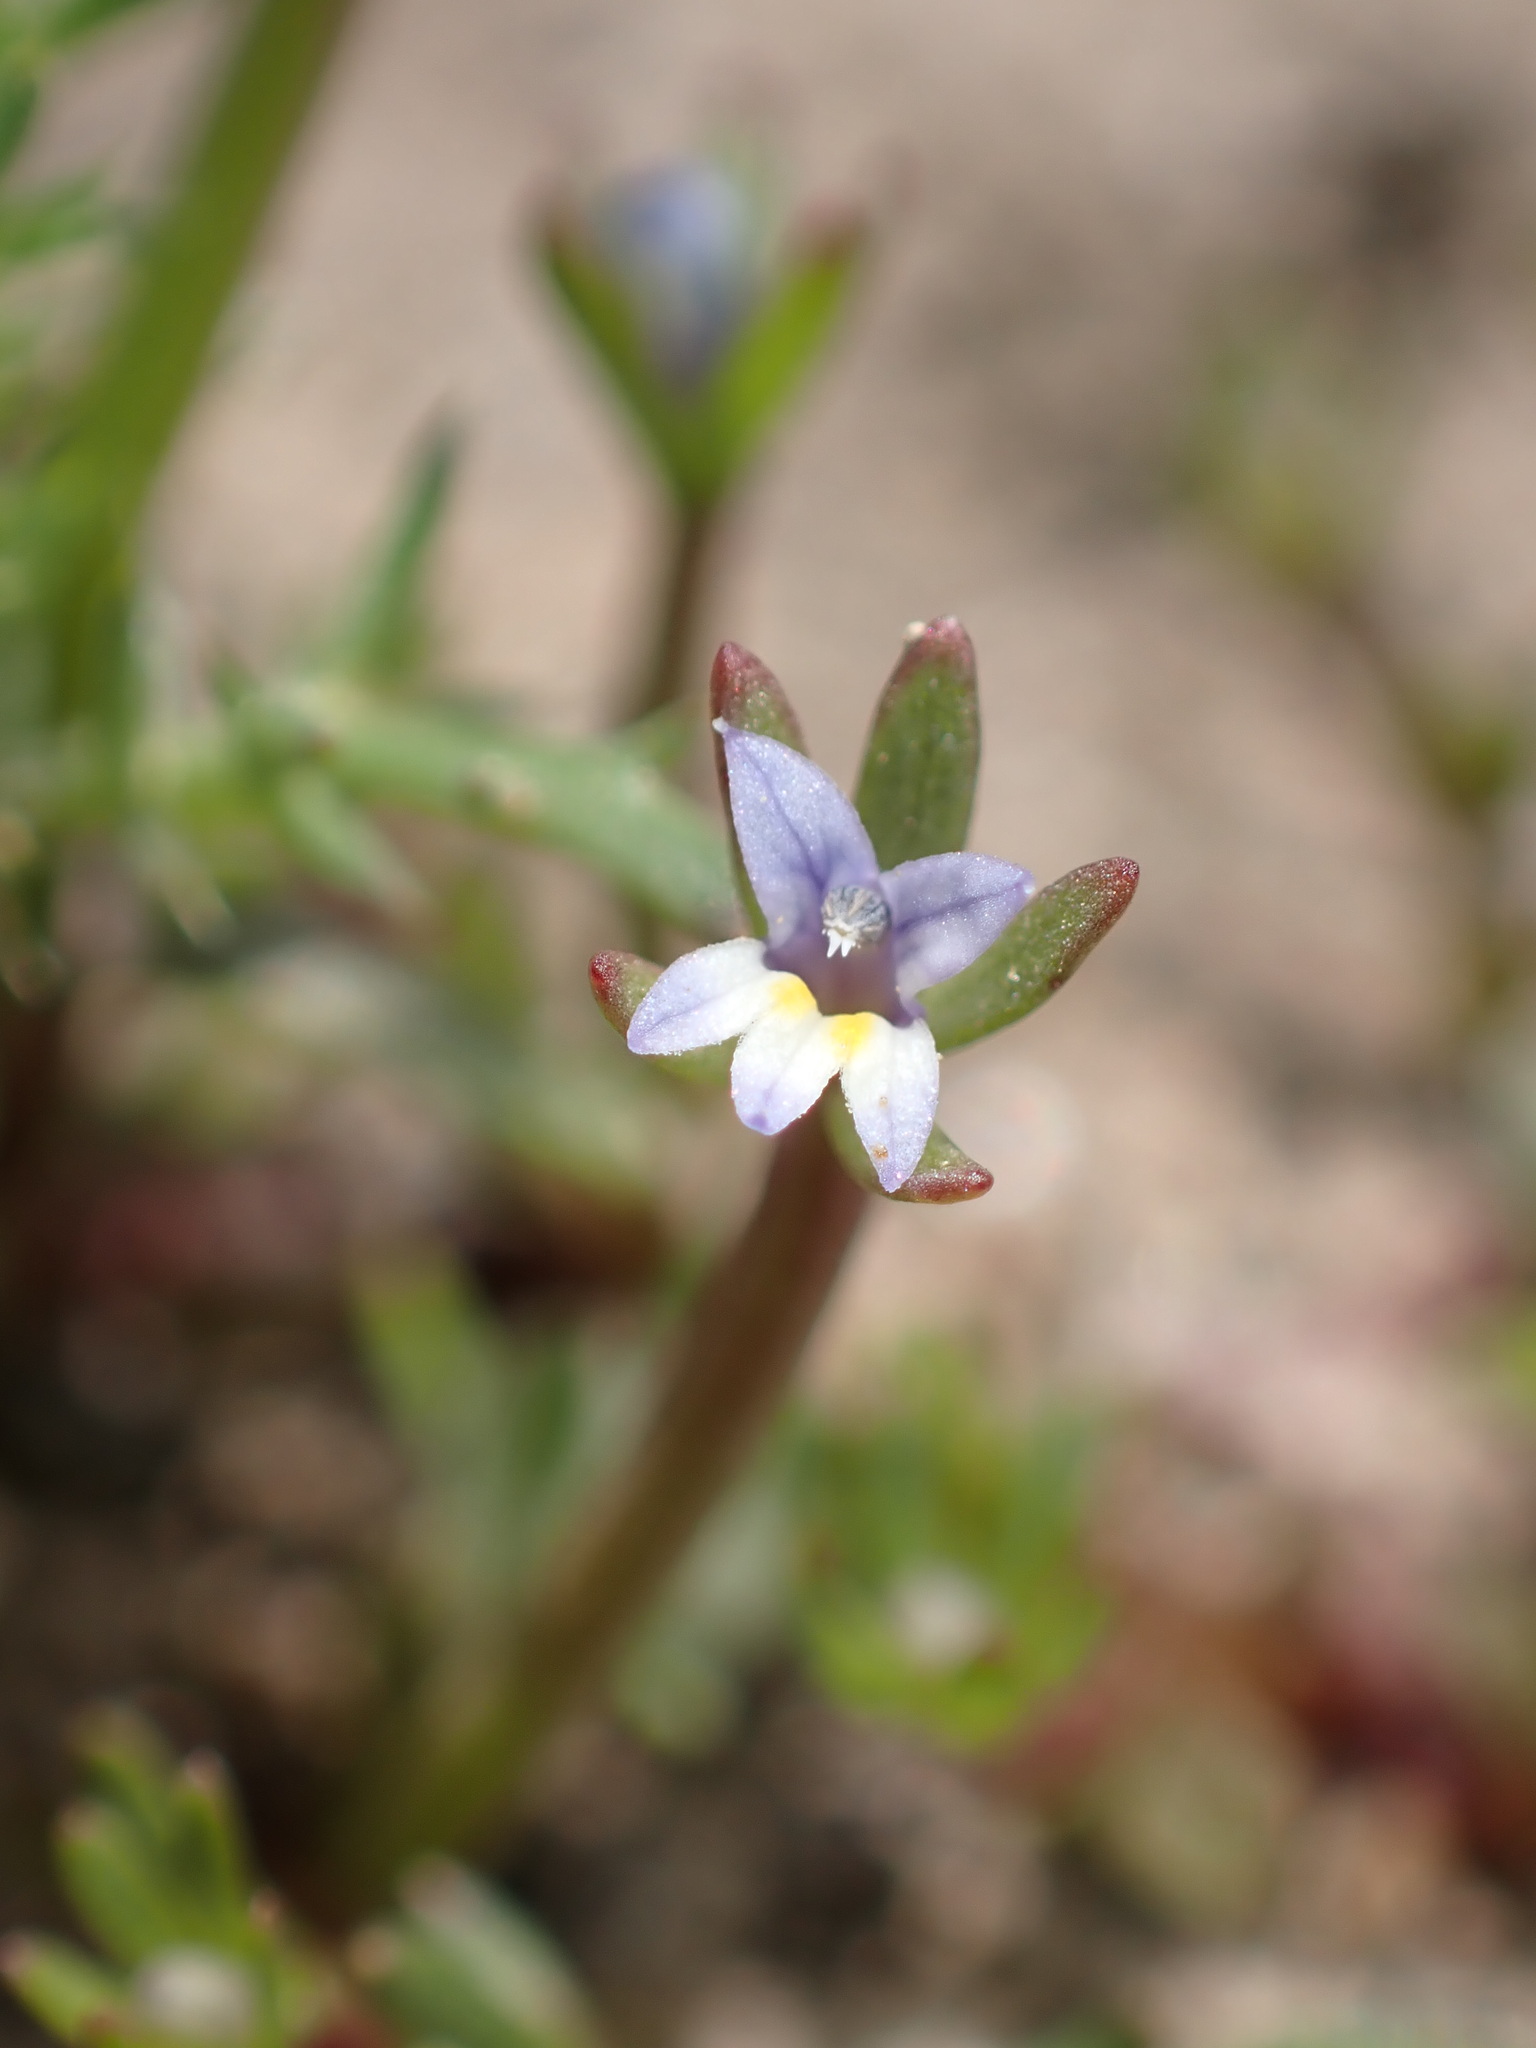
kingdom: Plantae
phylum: Tracheophyta
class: Magnoliopsida
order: Asterales
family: Campanulaceae
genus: Downingia
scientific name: Downingia pusilla
